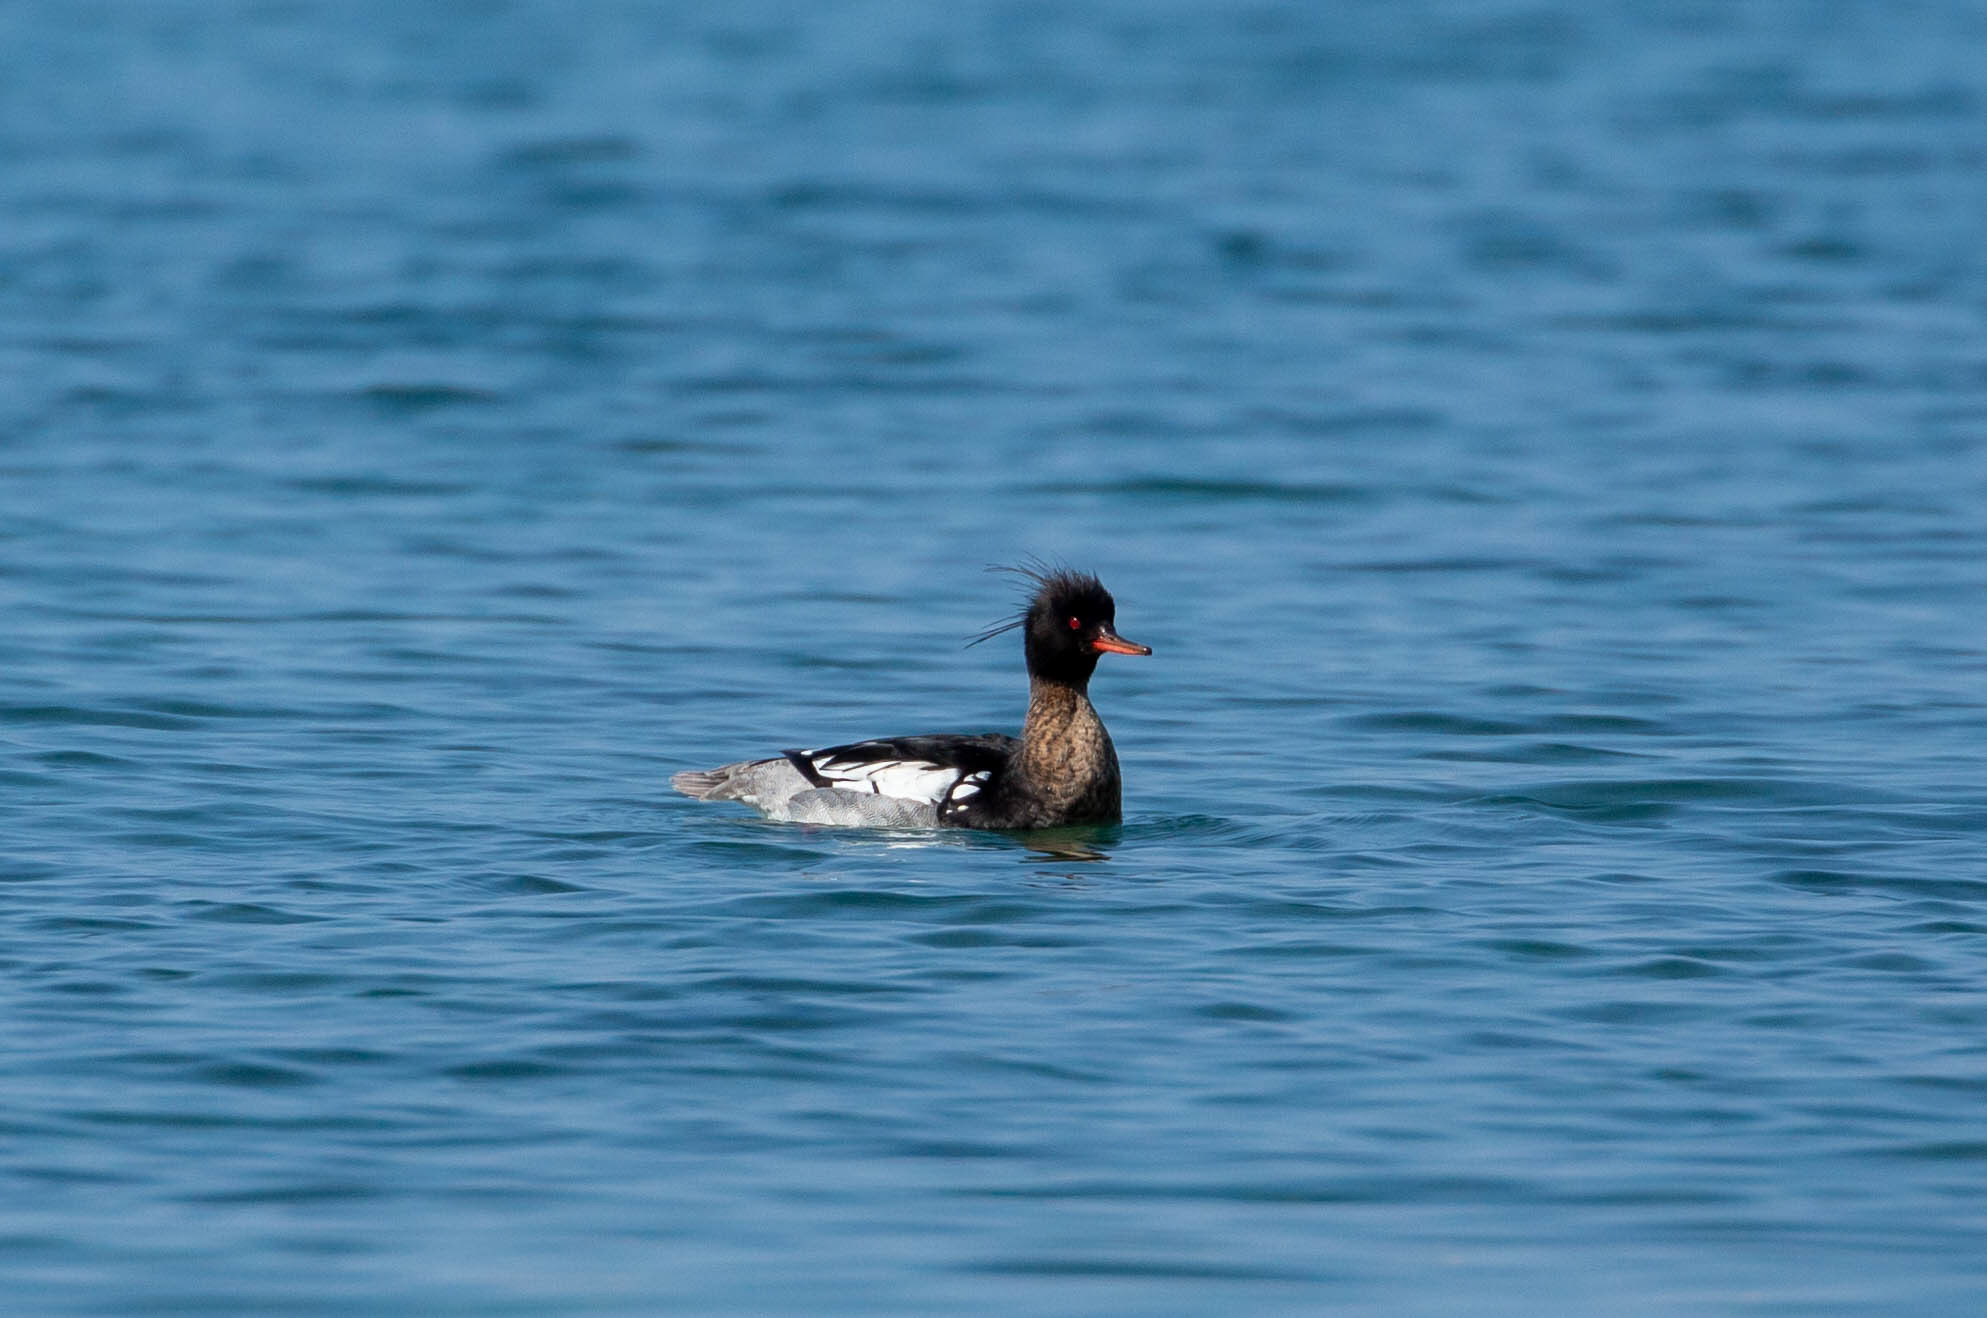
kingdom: Animalia
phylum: Chordata
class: Aves
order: Anseriformes
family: Anatidae
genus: Mergus
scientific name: Mergus serrator
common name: Red-breasted merganser
